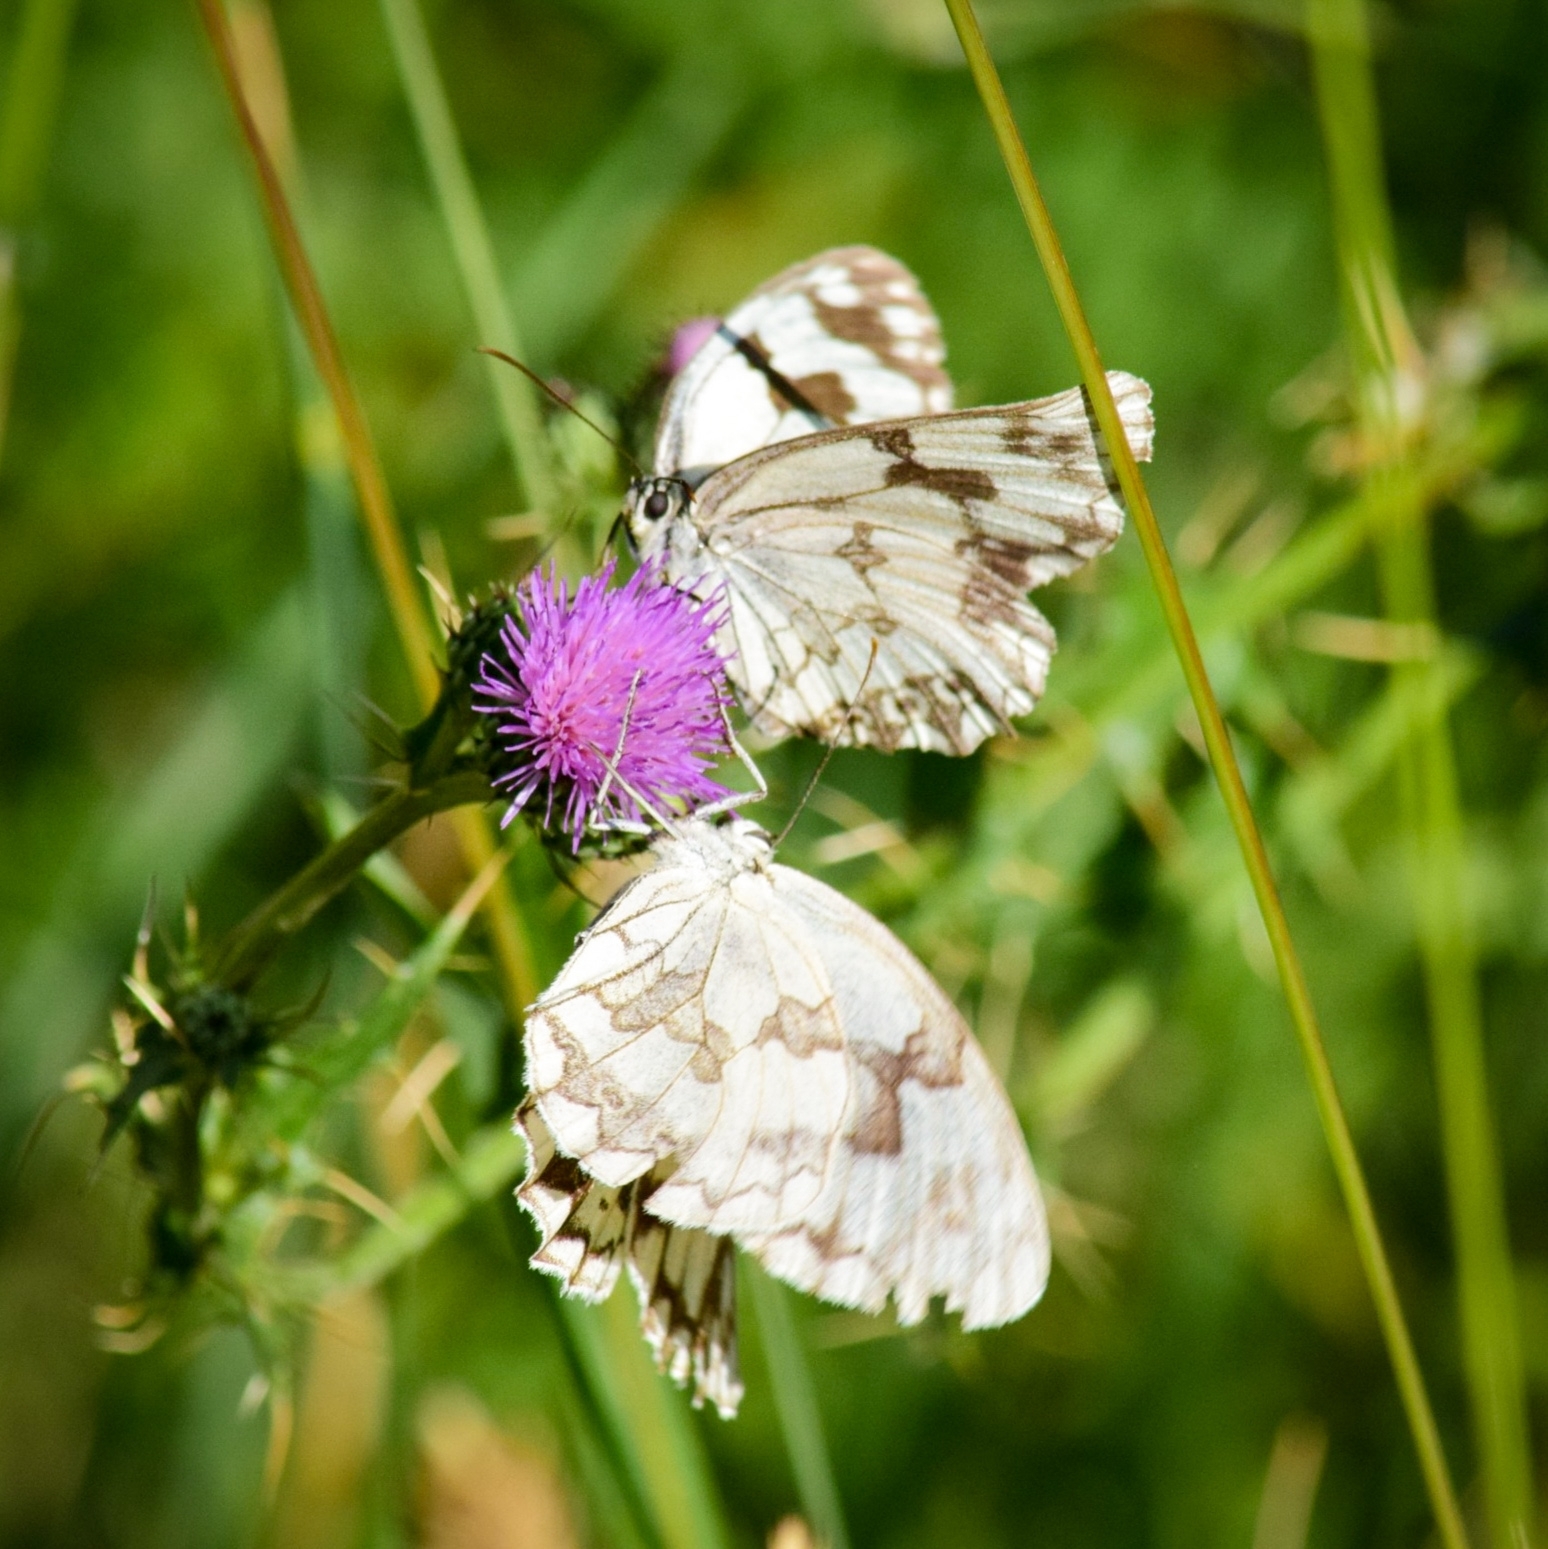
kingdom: Animalia
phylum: Arthropoda
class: Insecta
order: Lepidoptera
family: Nymphalidae
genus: Melanargia
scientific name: Melanargia lachesis
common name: Iberian marbled white
